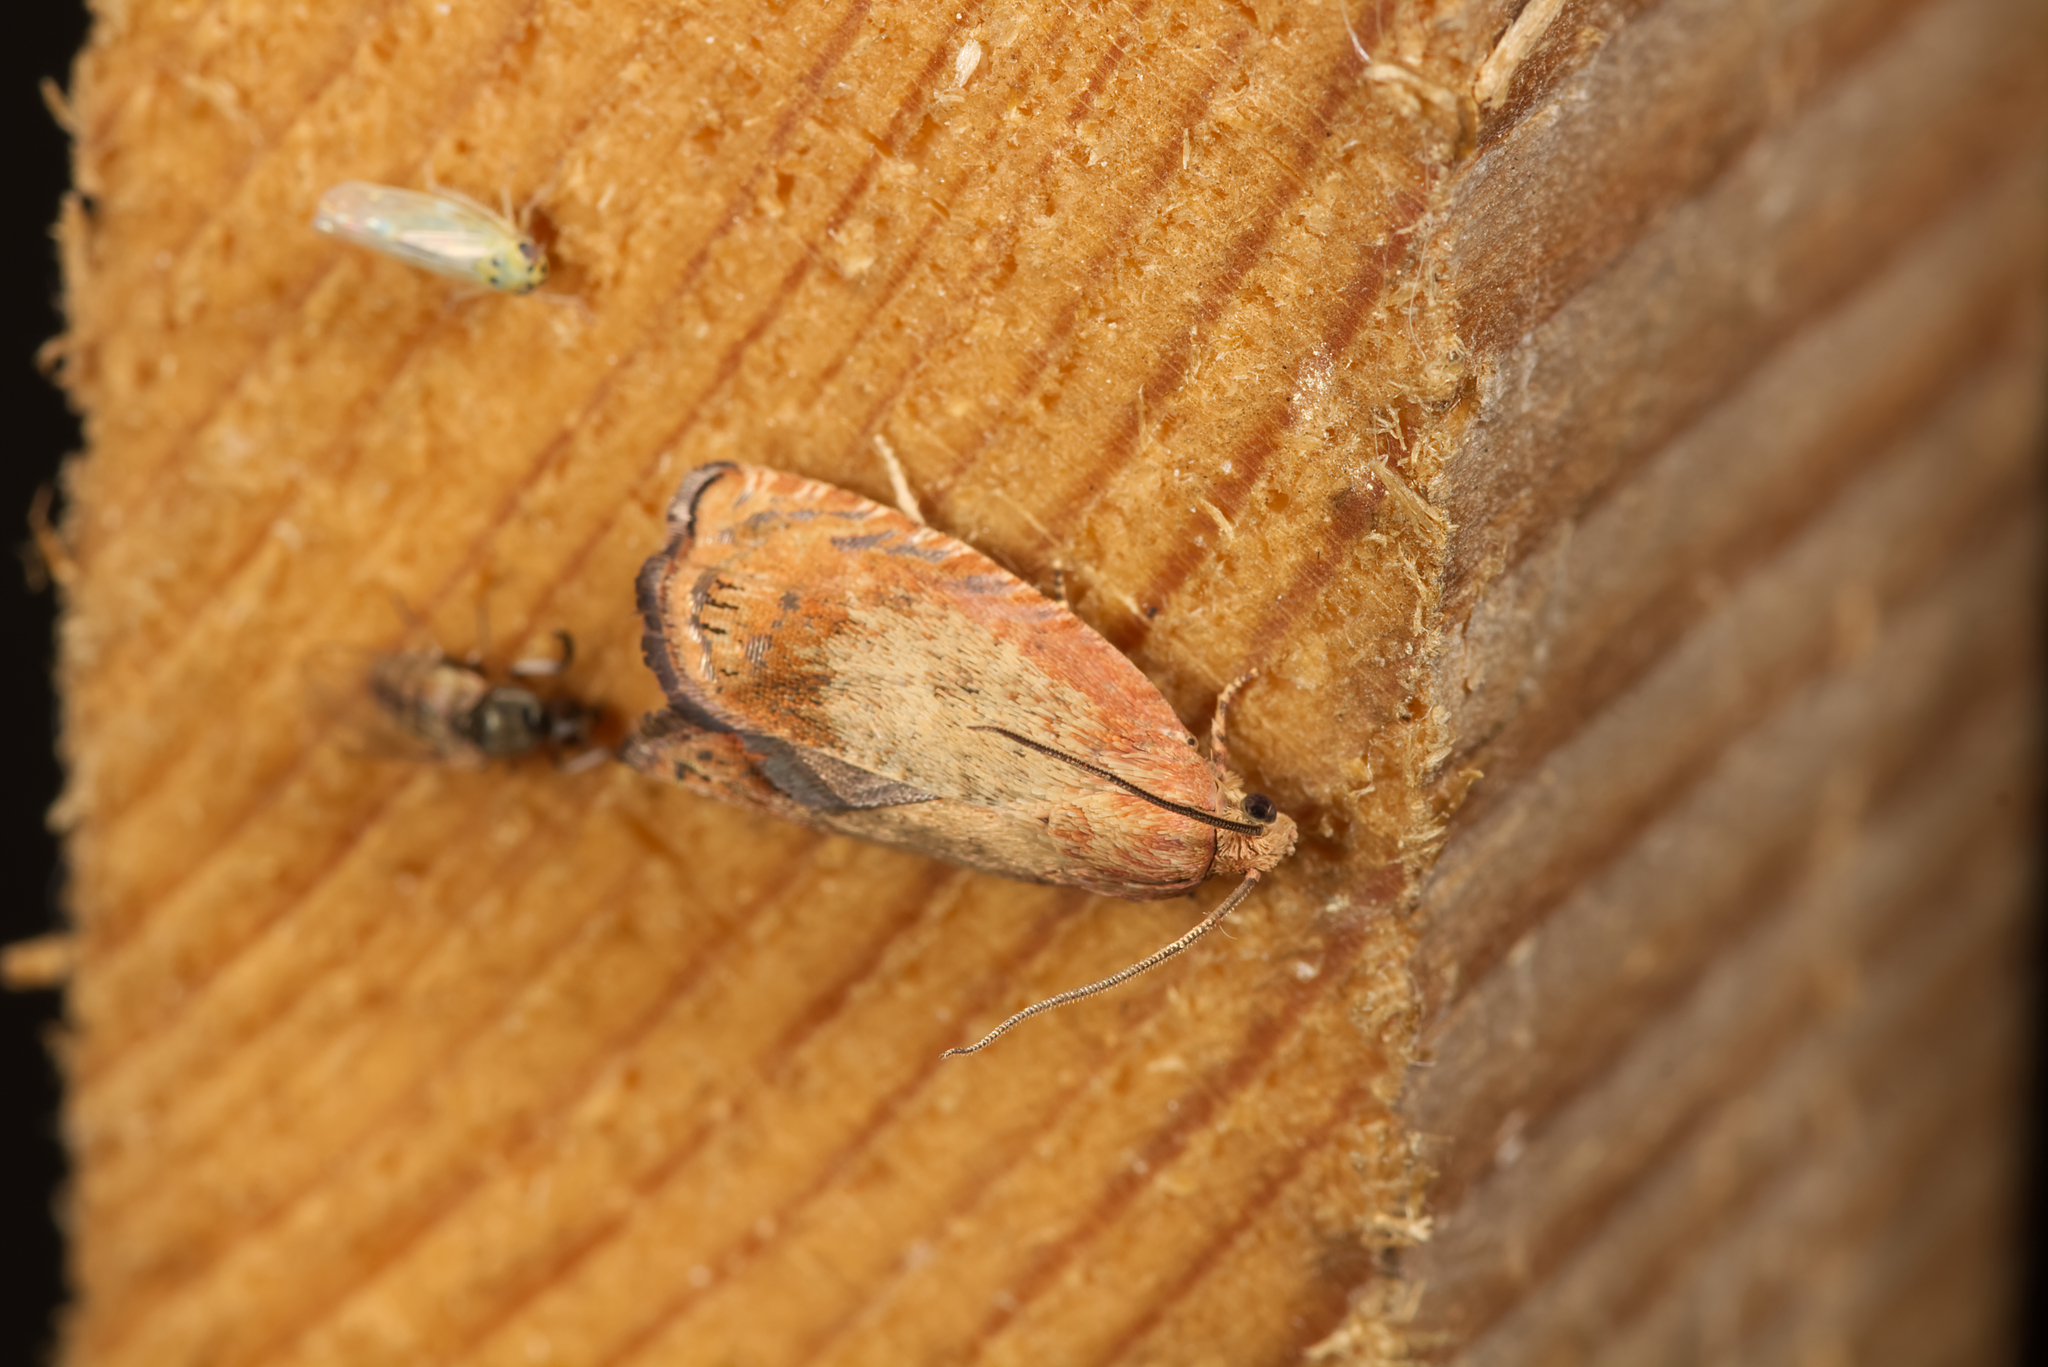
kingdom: Animalia
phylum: Arthropoda
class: Insecta
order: Lepidoptera
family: Tortricidae
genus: Cydia
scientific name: Cydia amplana
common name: Vagrant piercer
